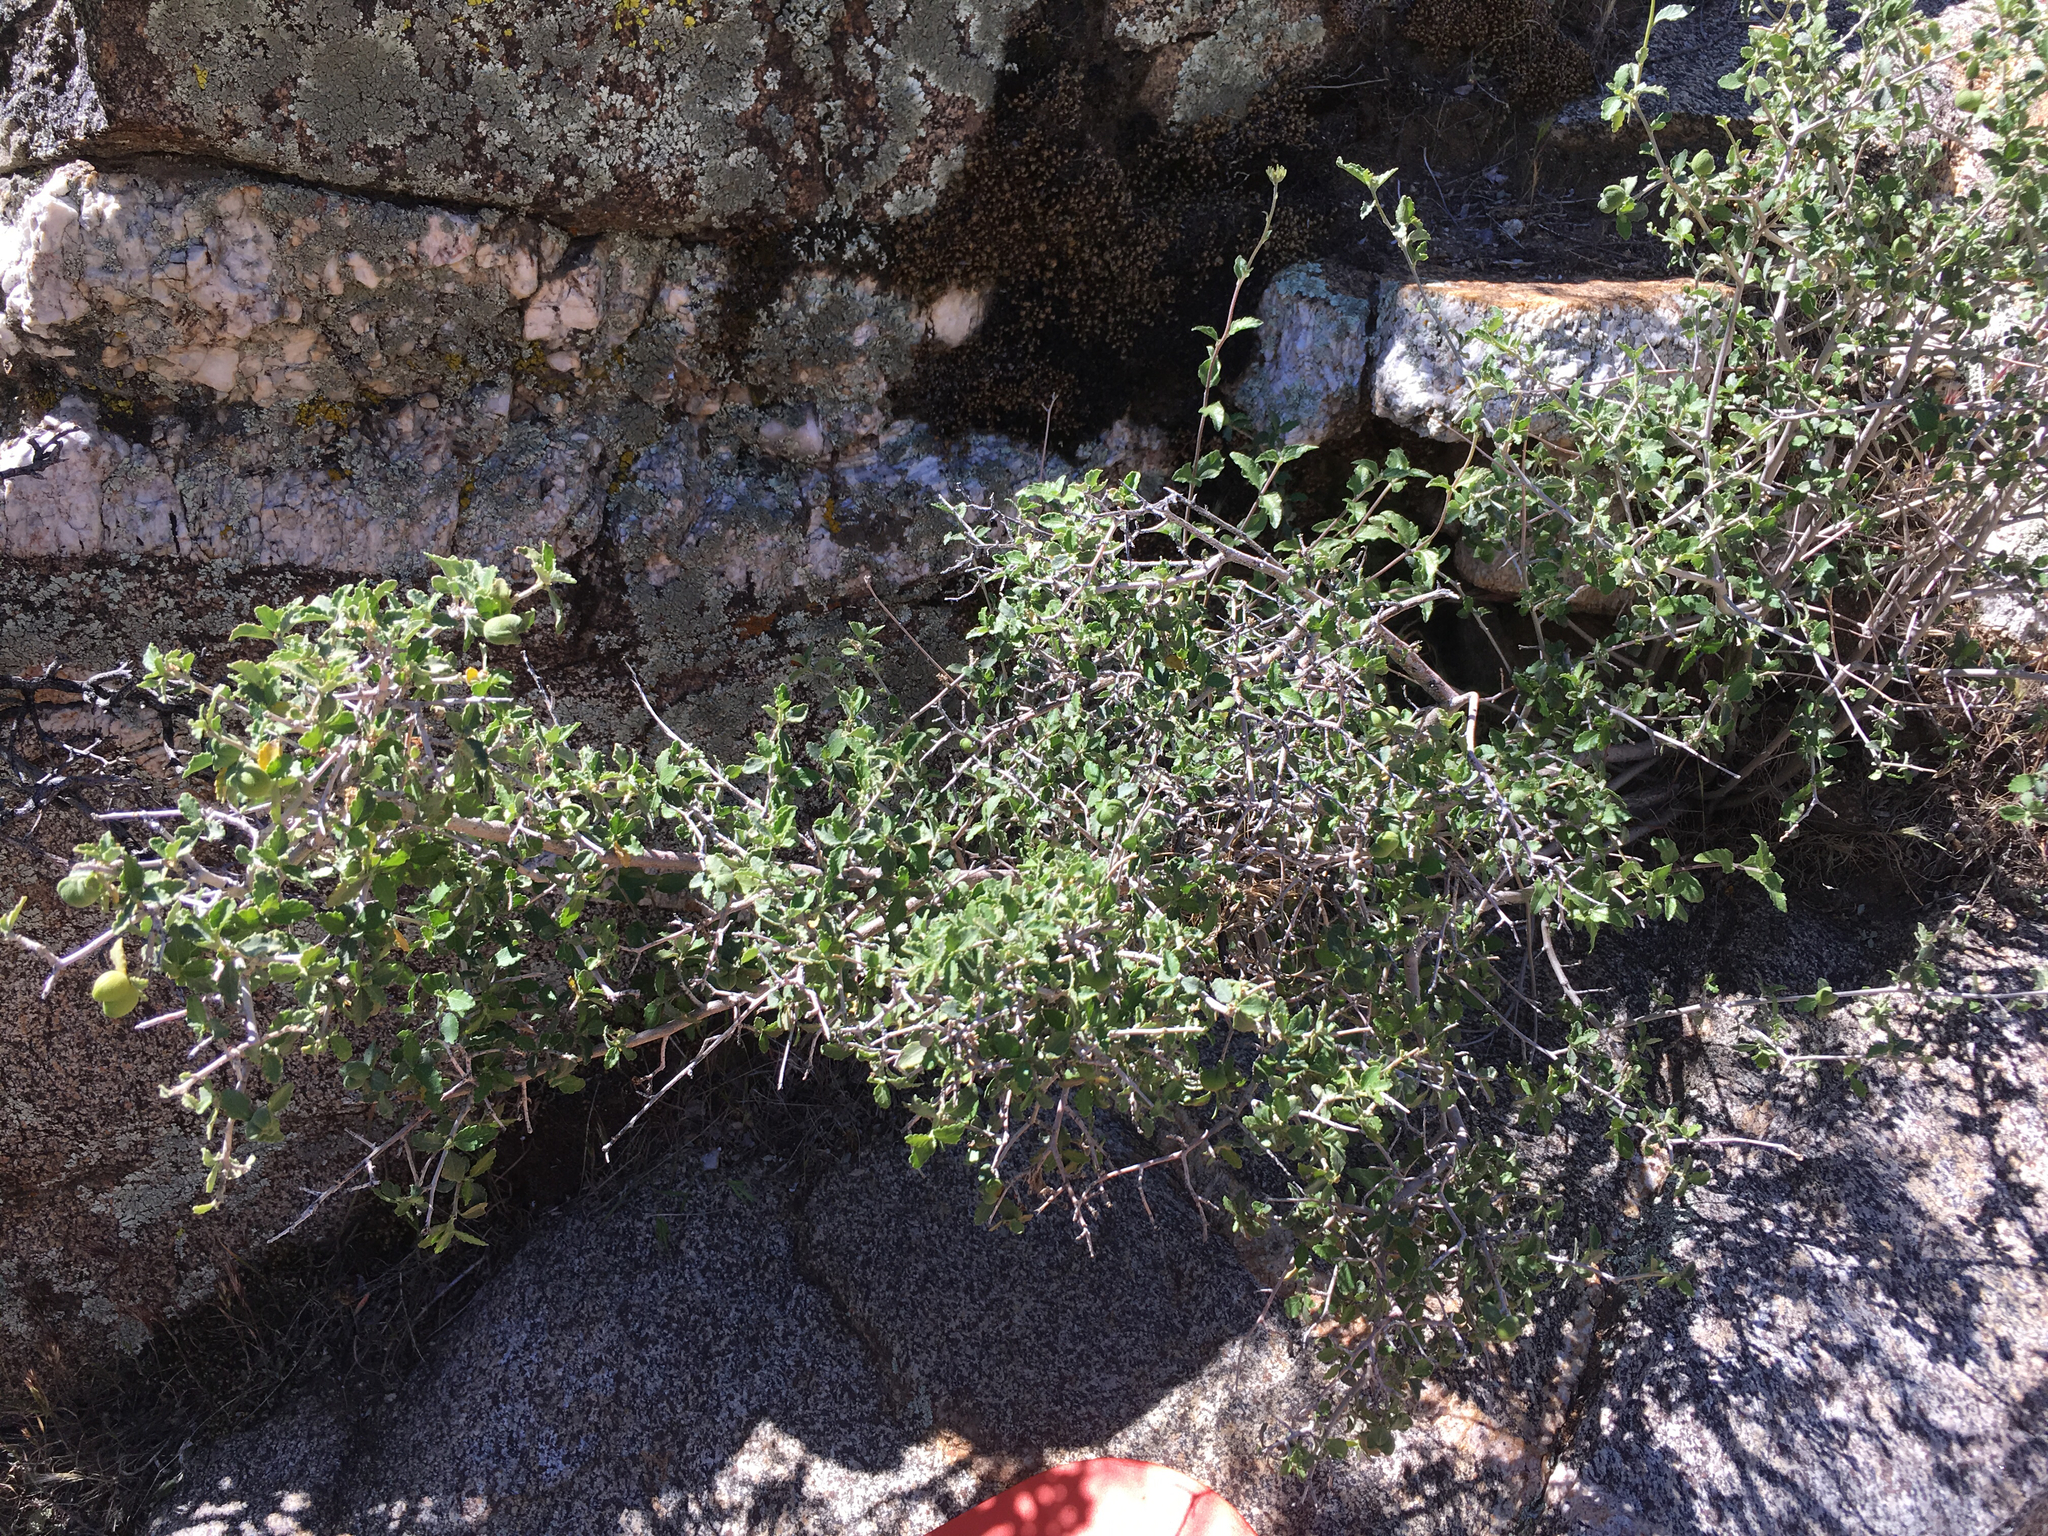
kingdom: Plantae
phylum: Tracheophyta
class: Magnoliopsida
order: Malpighiales
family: Euphorbiaceae
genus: Bernardia
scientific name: Bernardia incana
